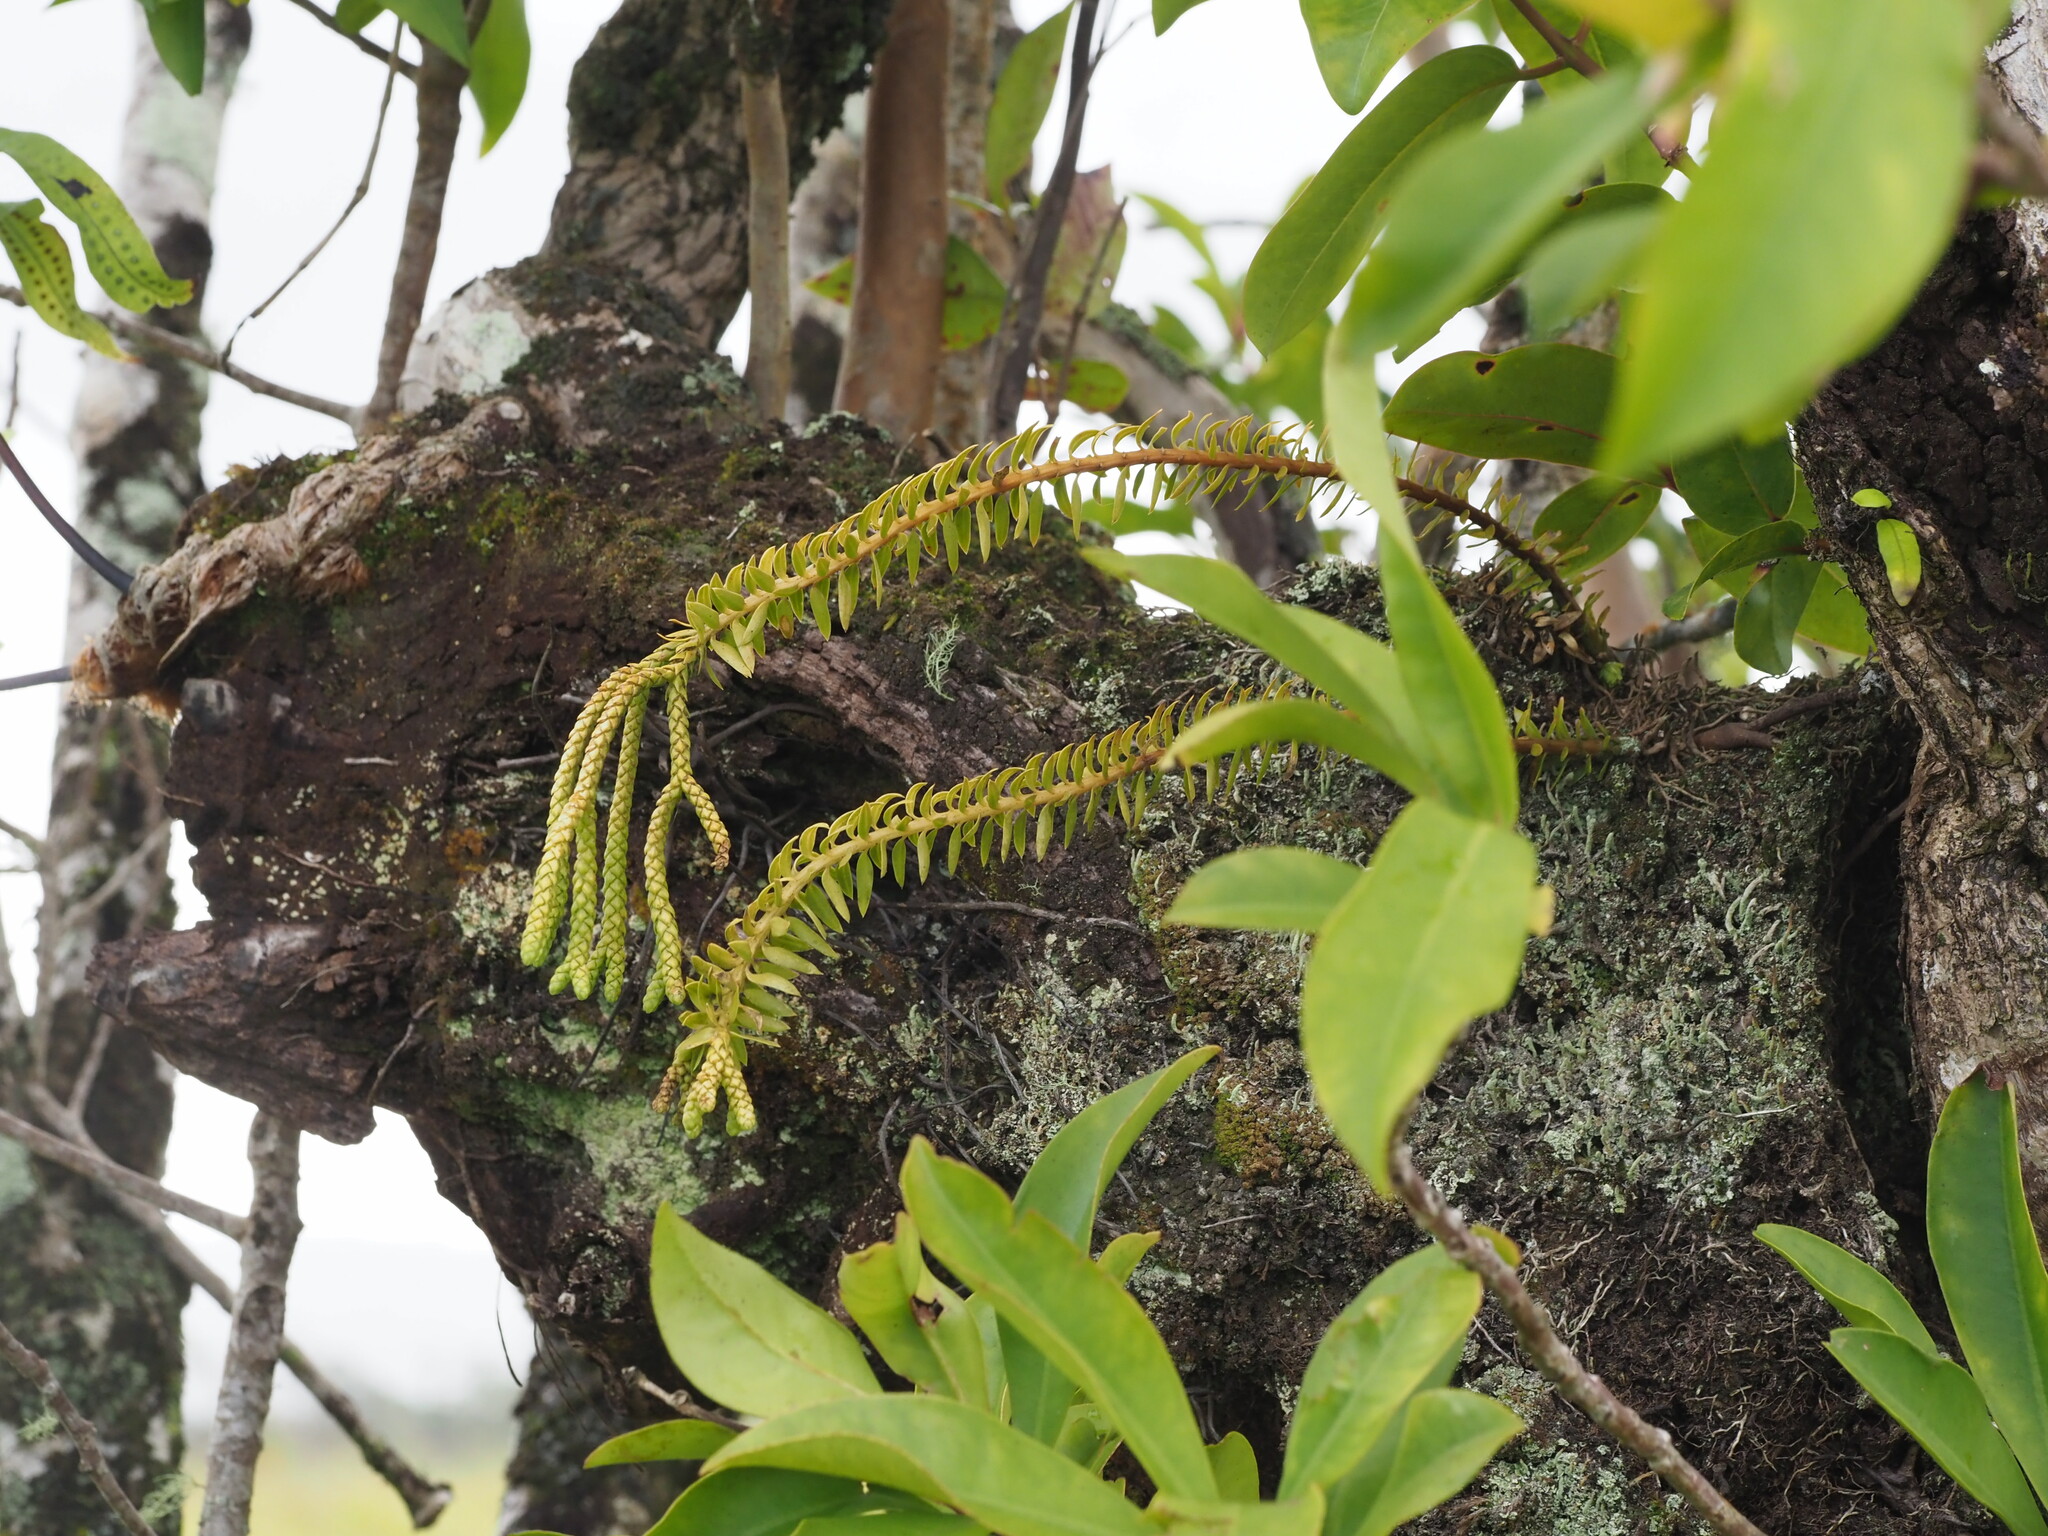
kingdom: Plantae
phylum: Tracheophyta
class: Lycopodiopsida
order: Lycopodiales
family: Lycopodiaceae
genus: Phlegmariurus
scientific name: Phlegmariurus phyllanthus
